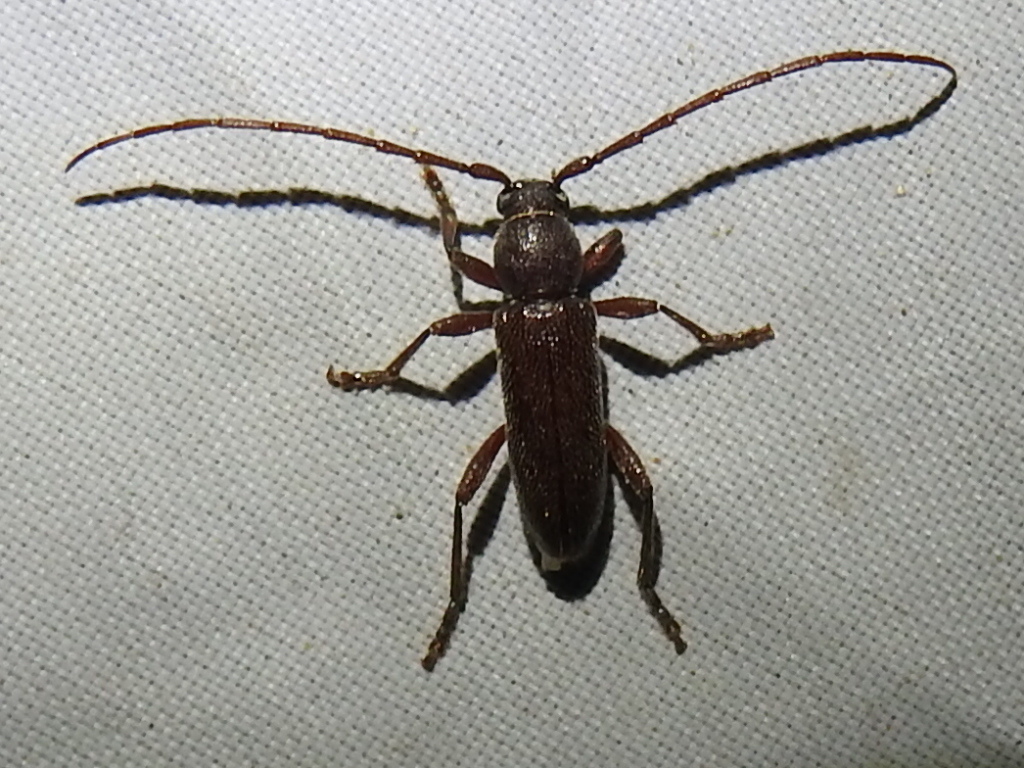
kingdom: Animalia
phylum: Arthropoda
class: Insecta
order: Coleoptera
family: Cerambycidae
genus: Anelaphus
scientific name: Anelaphus moestus
